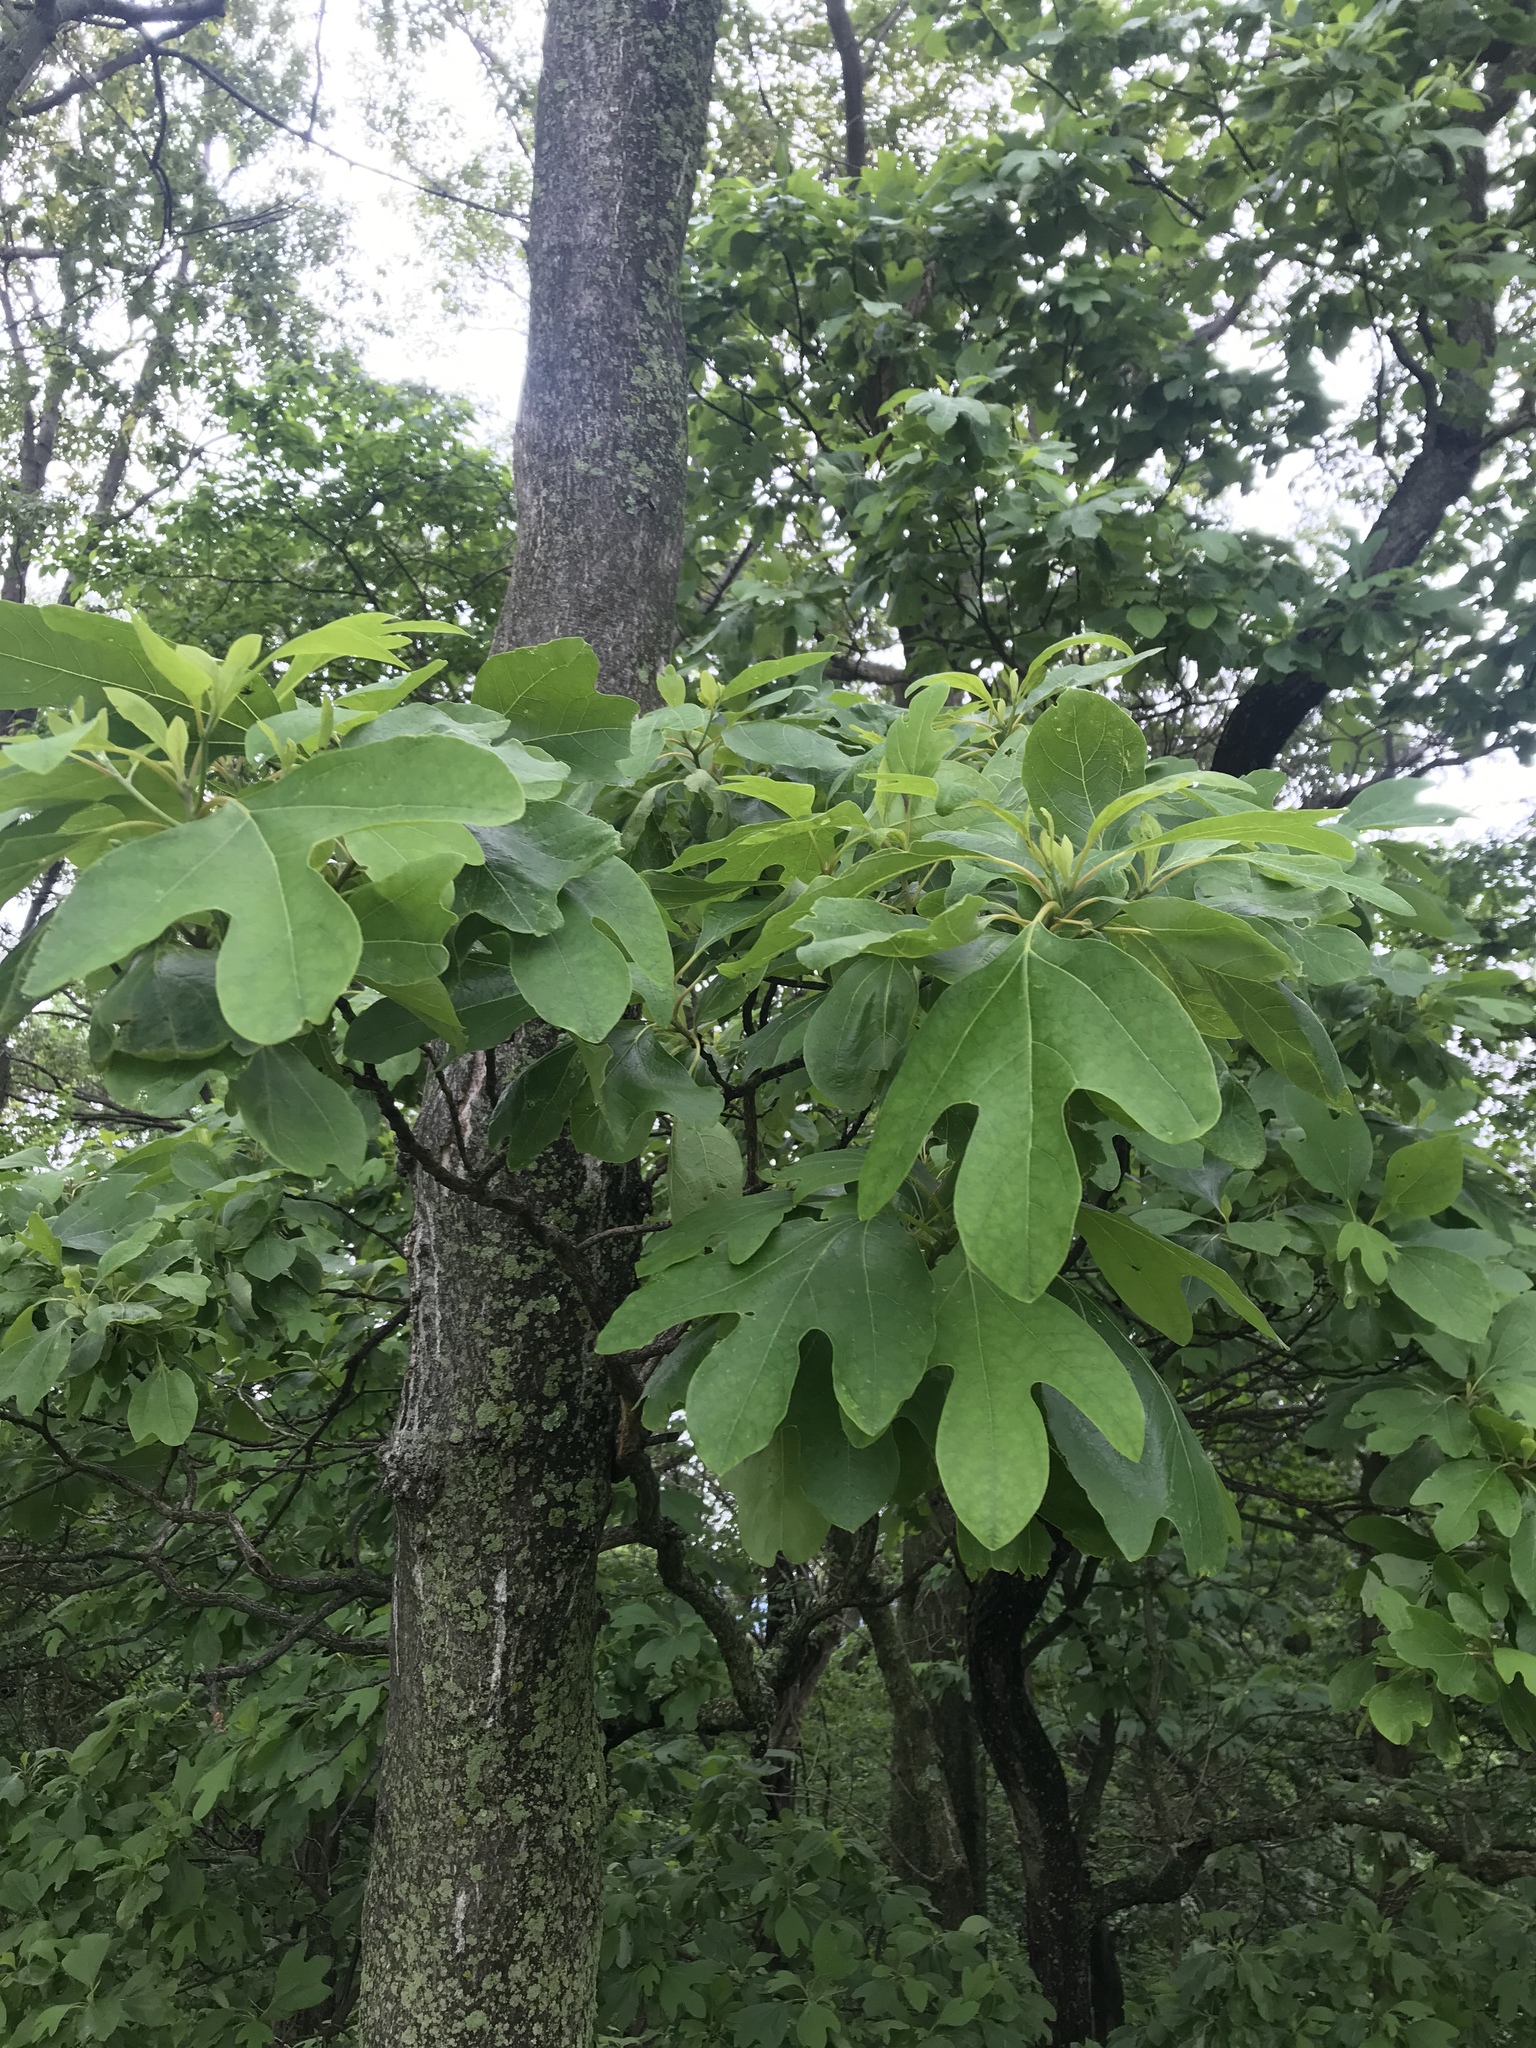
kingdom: Plantae
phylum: Tracheophyta
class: Magnoliopsida
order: Laurales
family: Lauraceae
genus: Sassafras
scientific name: Sassafras albidum
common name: Sassafras
